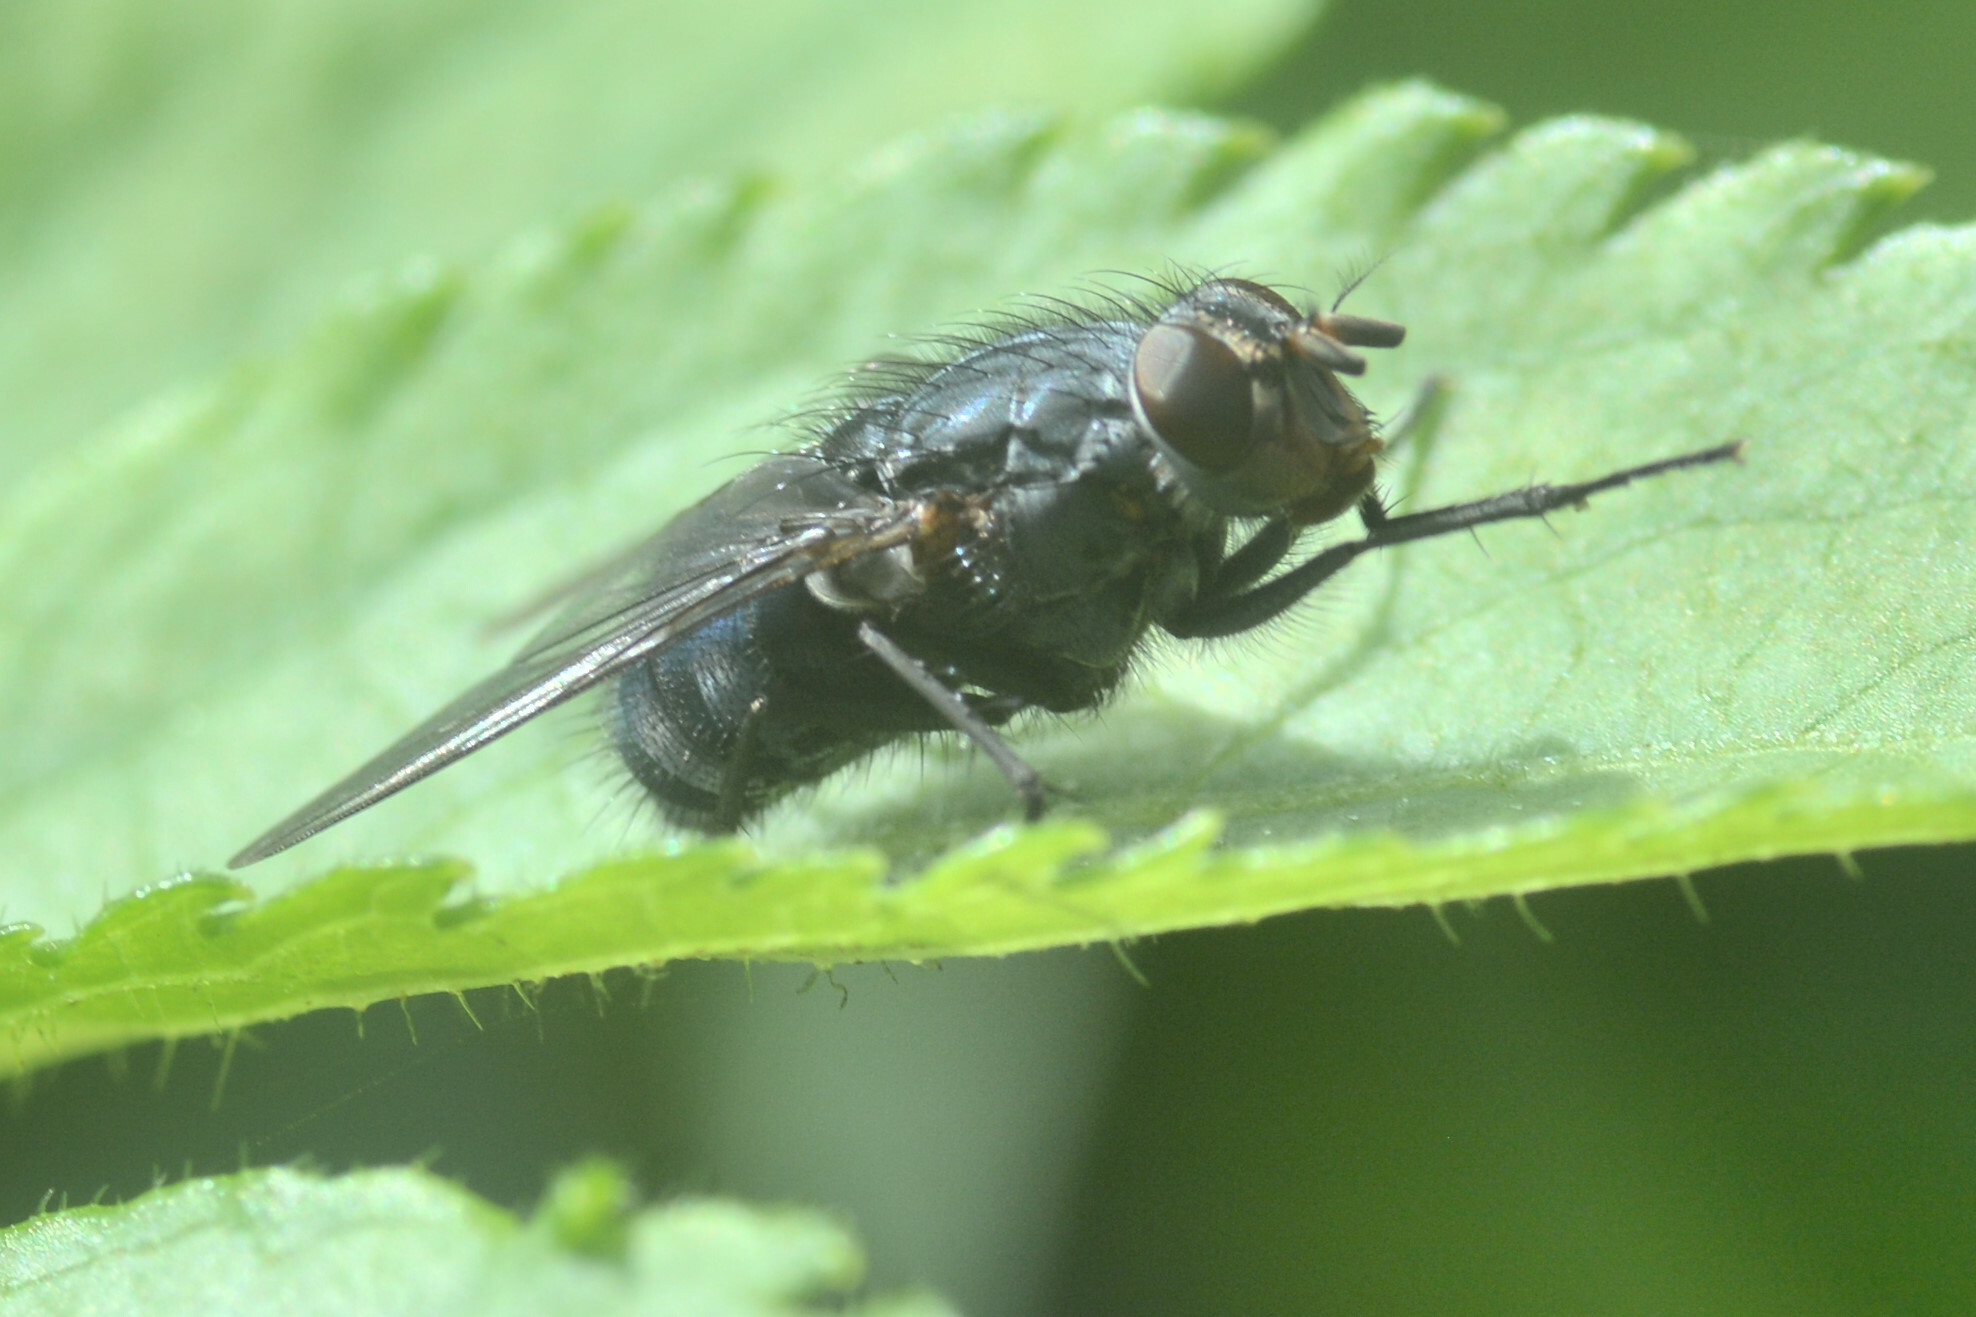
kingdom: Animalia
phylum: Arthropoda
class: Insecta
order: Diptera
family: Calliphoridae
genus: Calliphora
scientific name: Calliphora vicina
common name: Common blow flie
